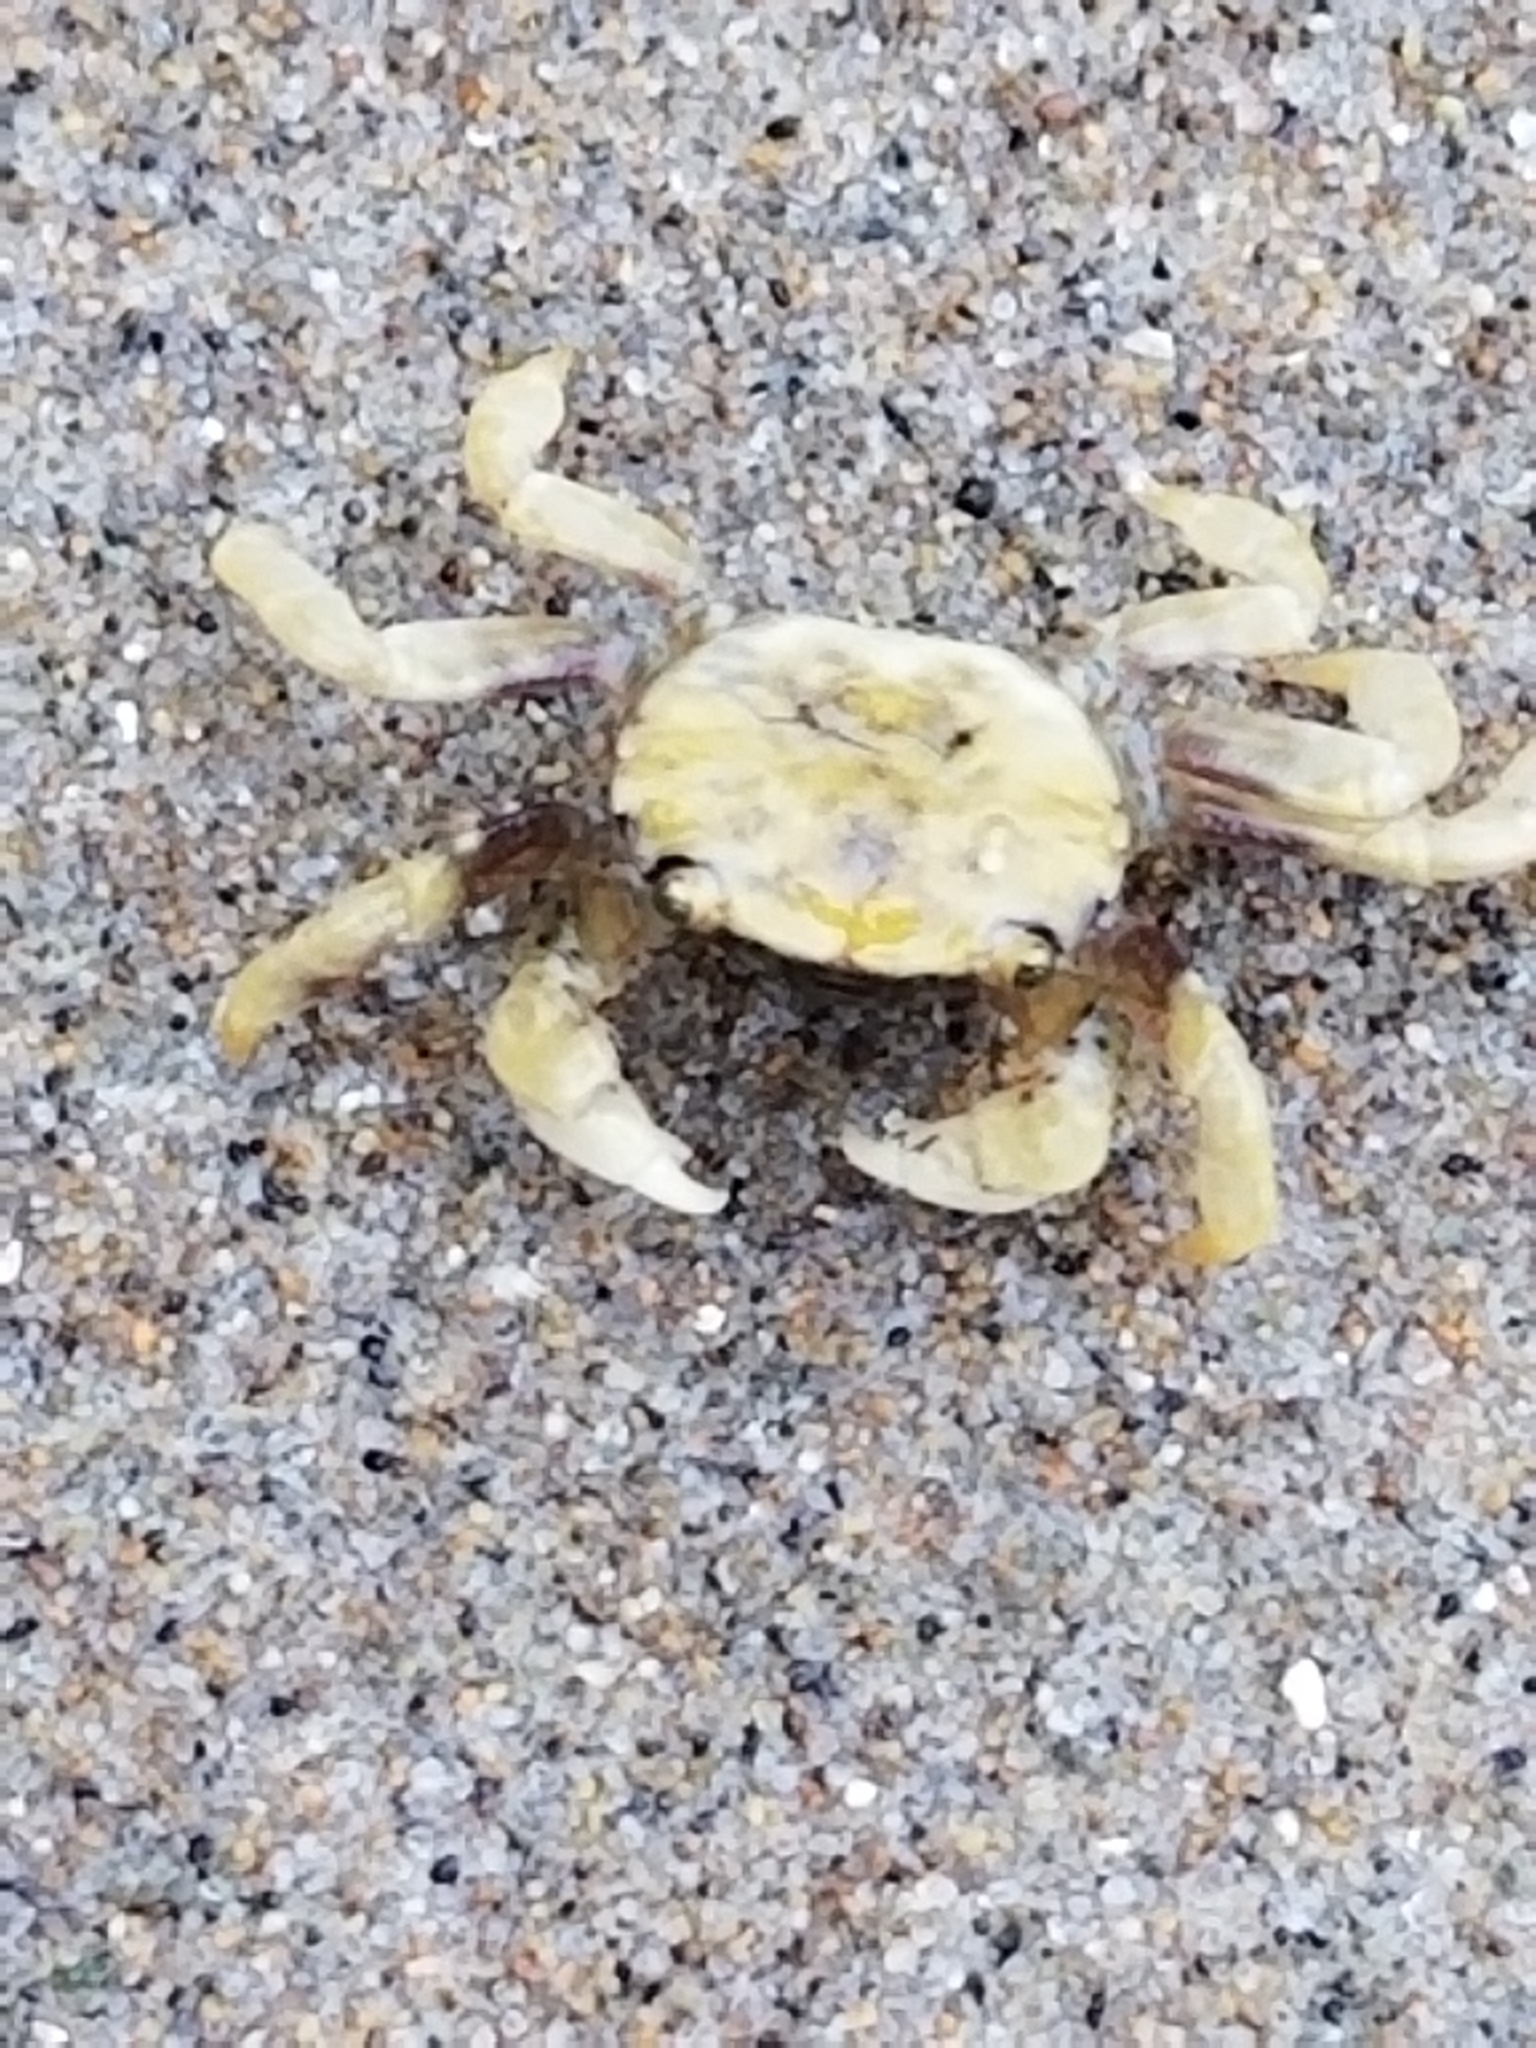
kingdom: Animalia
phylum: Arthropoda
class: Malacostraca
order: Decapoda
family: Varunidae
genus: Hemigrapsus
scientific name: Hemigrapsus nudus
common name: Purple shore crab
